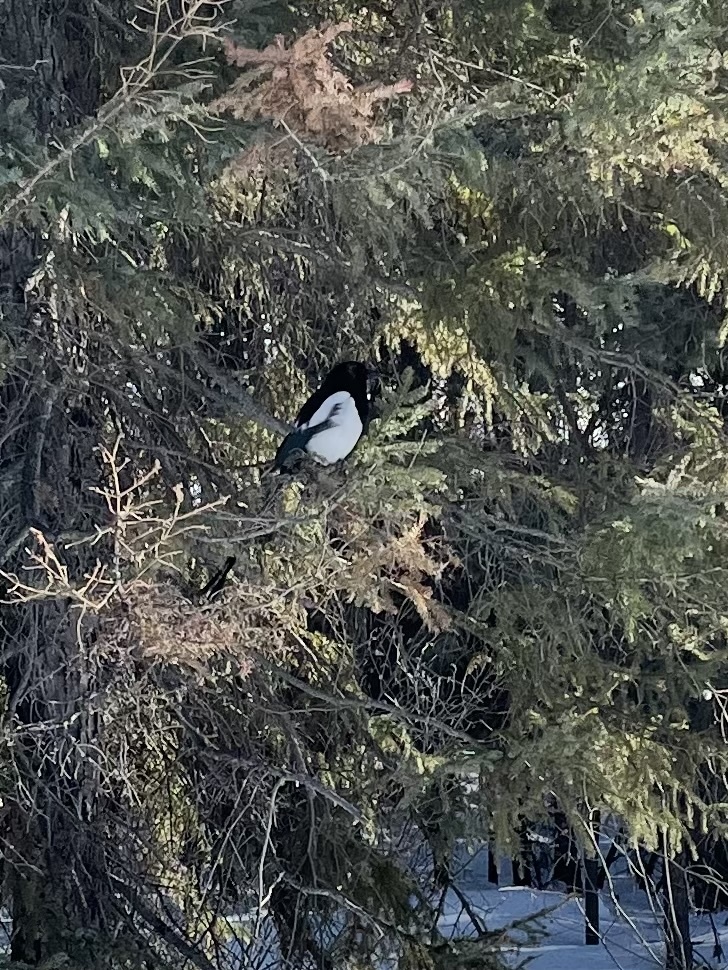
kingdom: Animalia
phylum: Chordata
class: Aves
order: Passeriformes
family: Corvidae
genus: Pica
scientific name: Pica hudsonia
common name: Black-billed magpie
